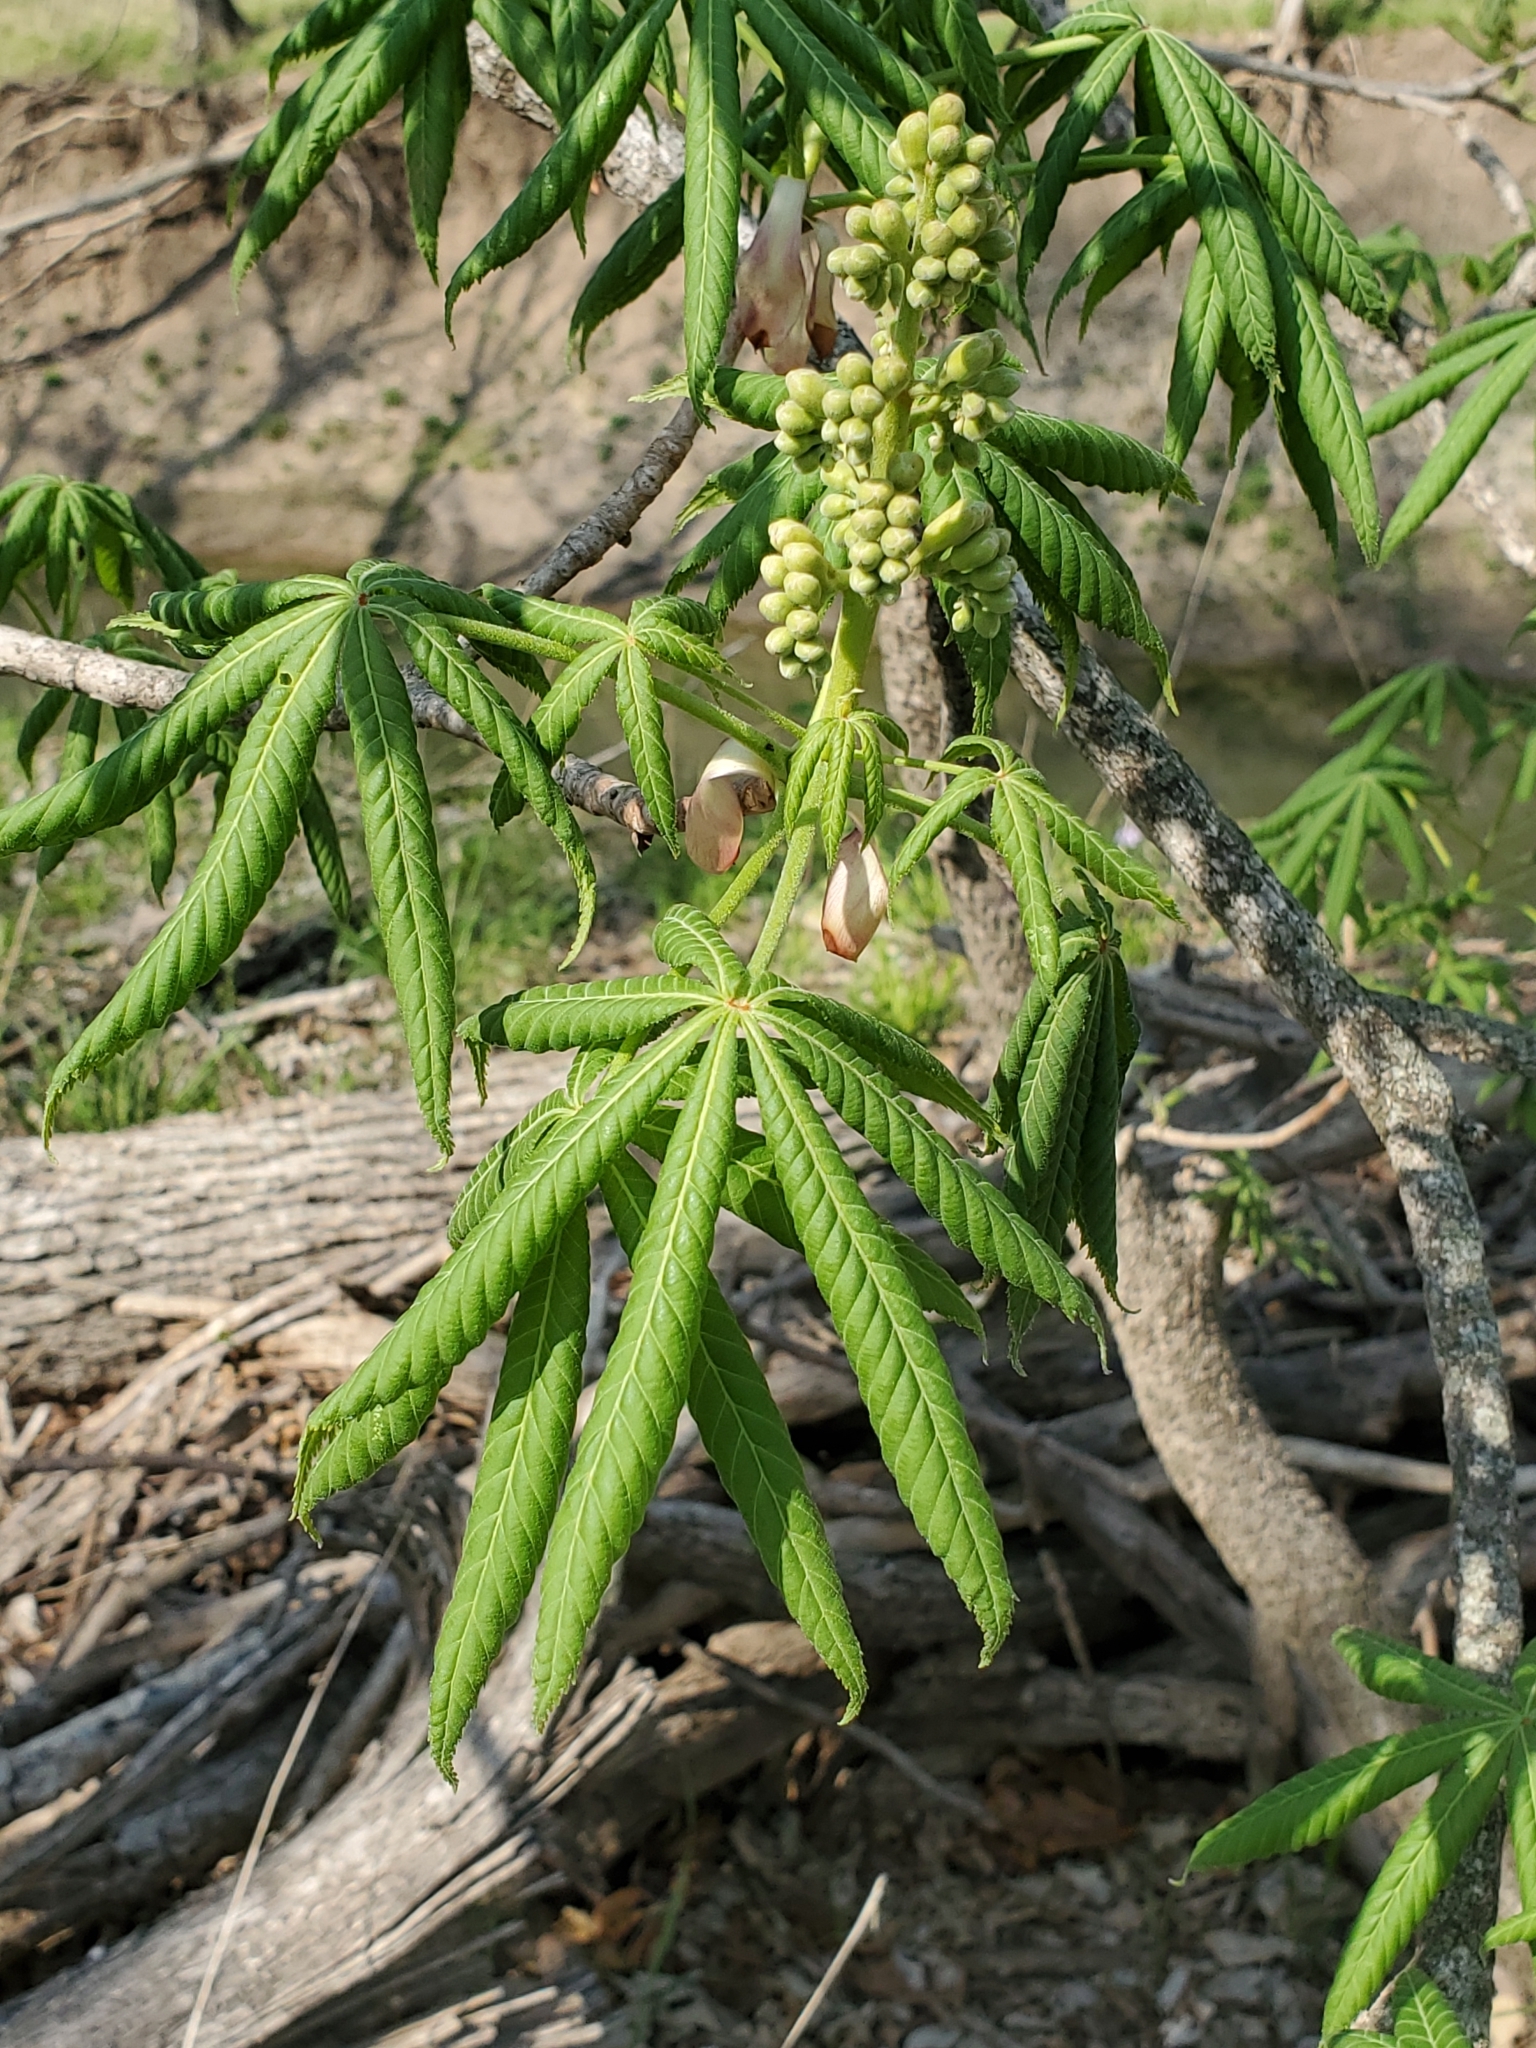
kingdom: Plantae
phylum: Tracheophyta
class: Magnoliopsida
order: Sapindales
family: Sapindaceae
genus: Aesculus
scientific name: Aesculus glabra
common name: Ohio buckeye
